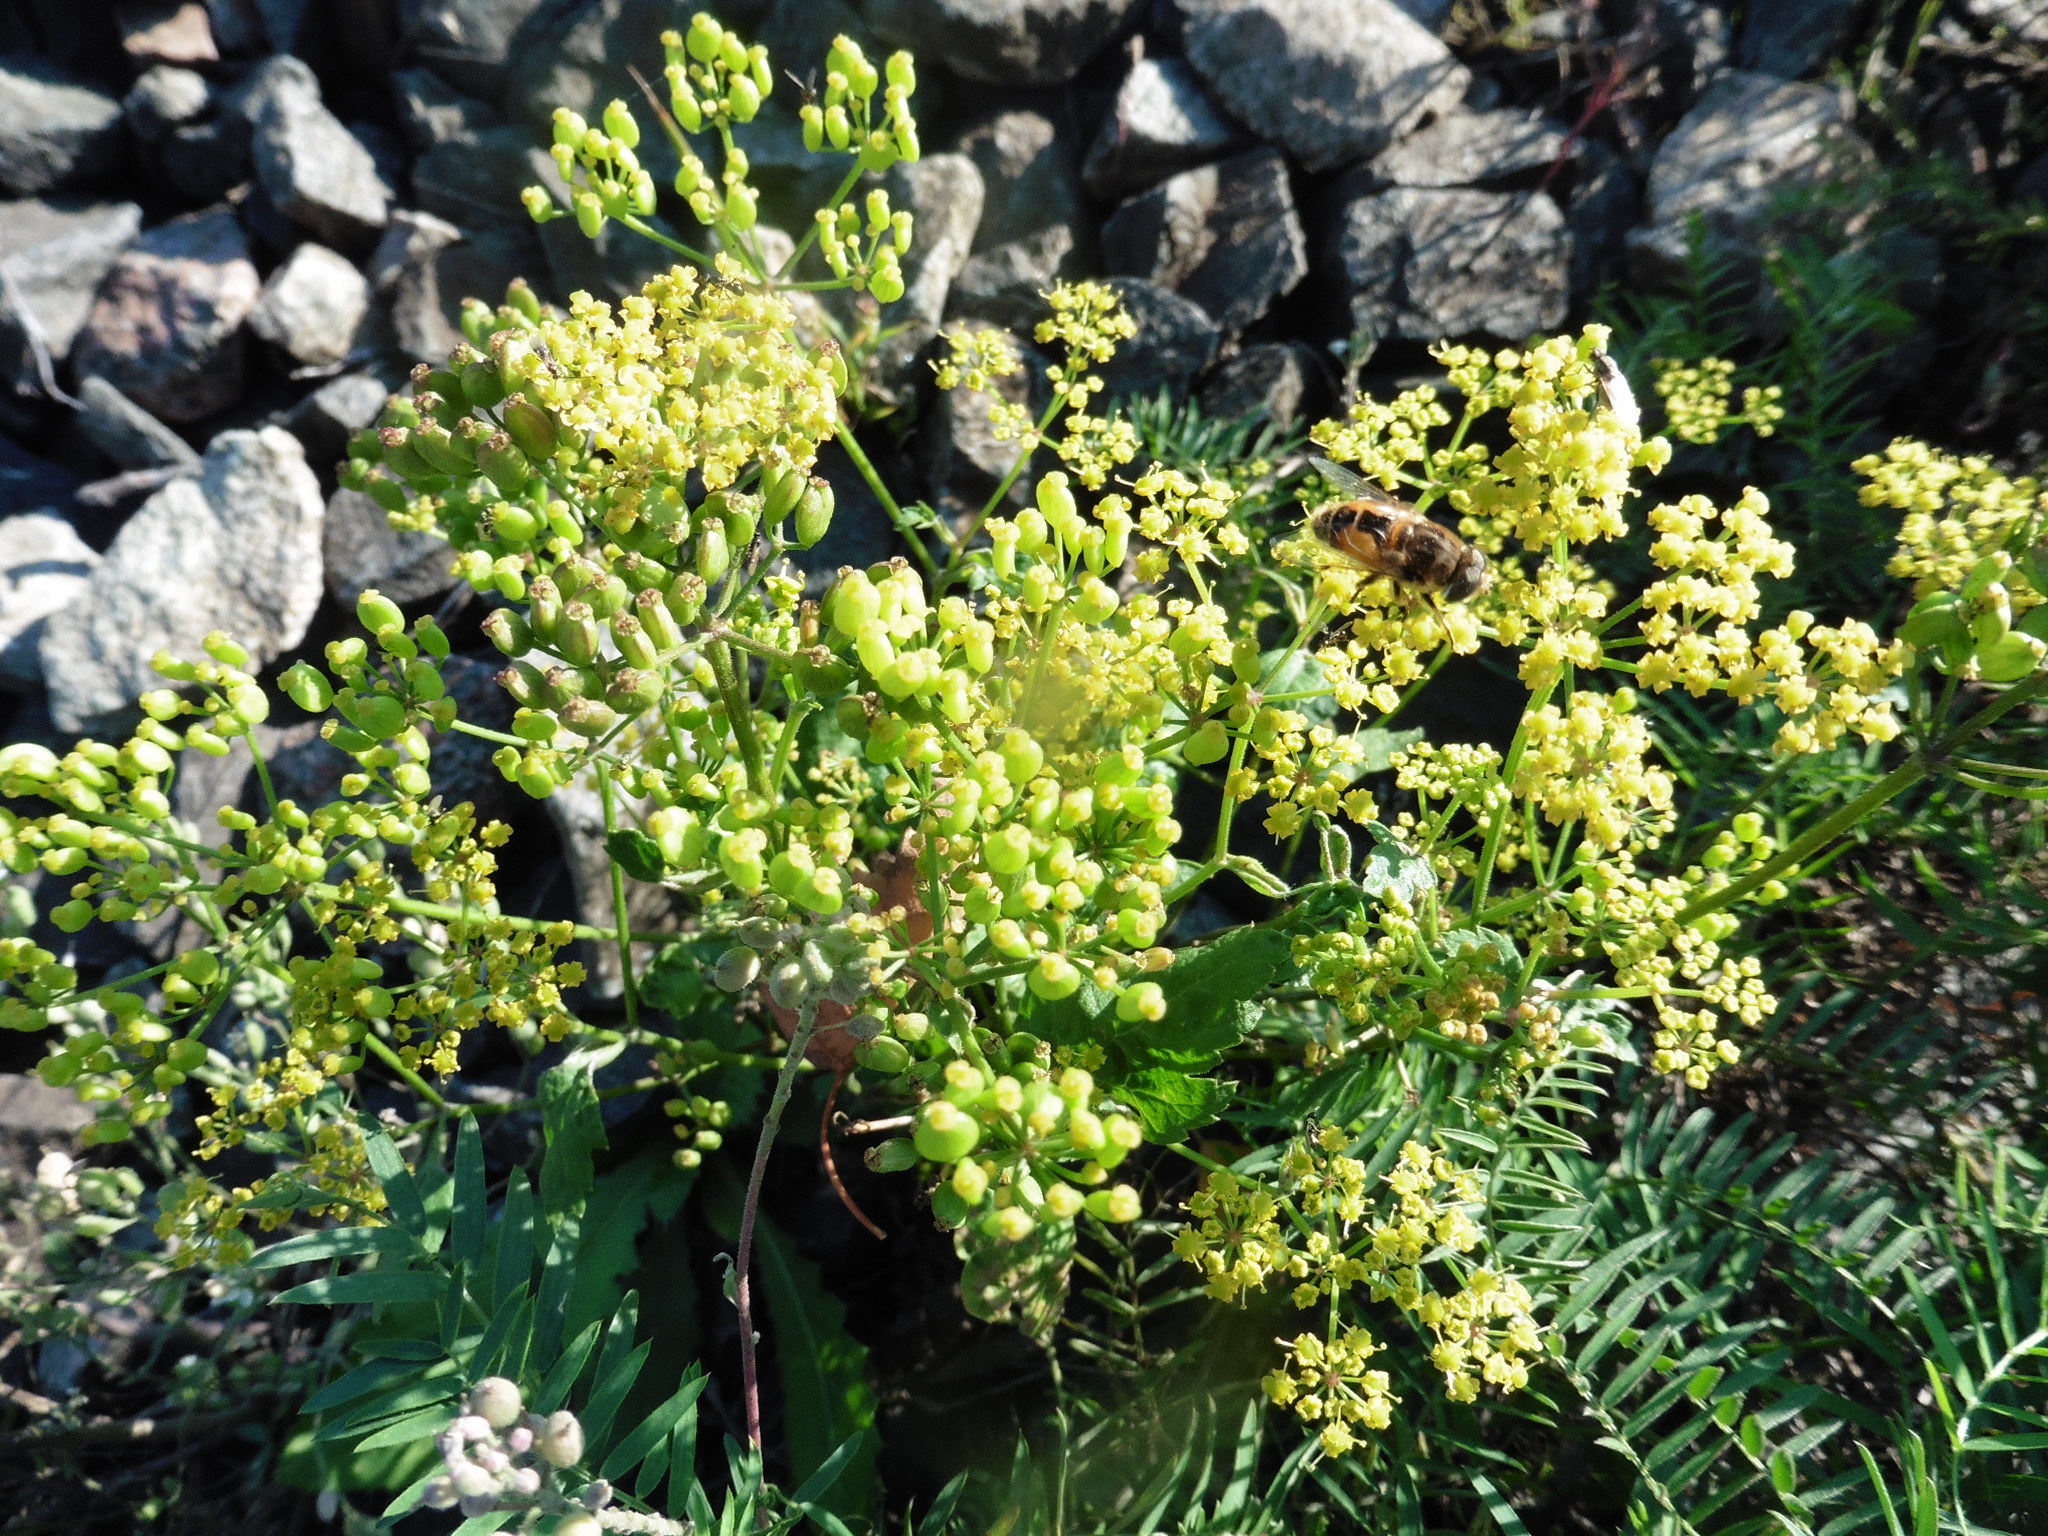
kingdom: Plantae
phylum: Tracheophyta
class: Magnoliopsida
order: Apiales
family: Apiaceae
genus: Pastinaca
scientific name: Pastinaca sativa
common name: Wild parsnip
